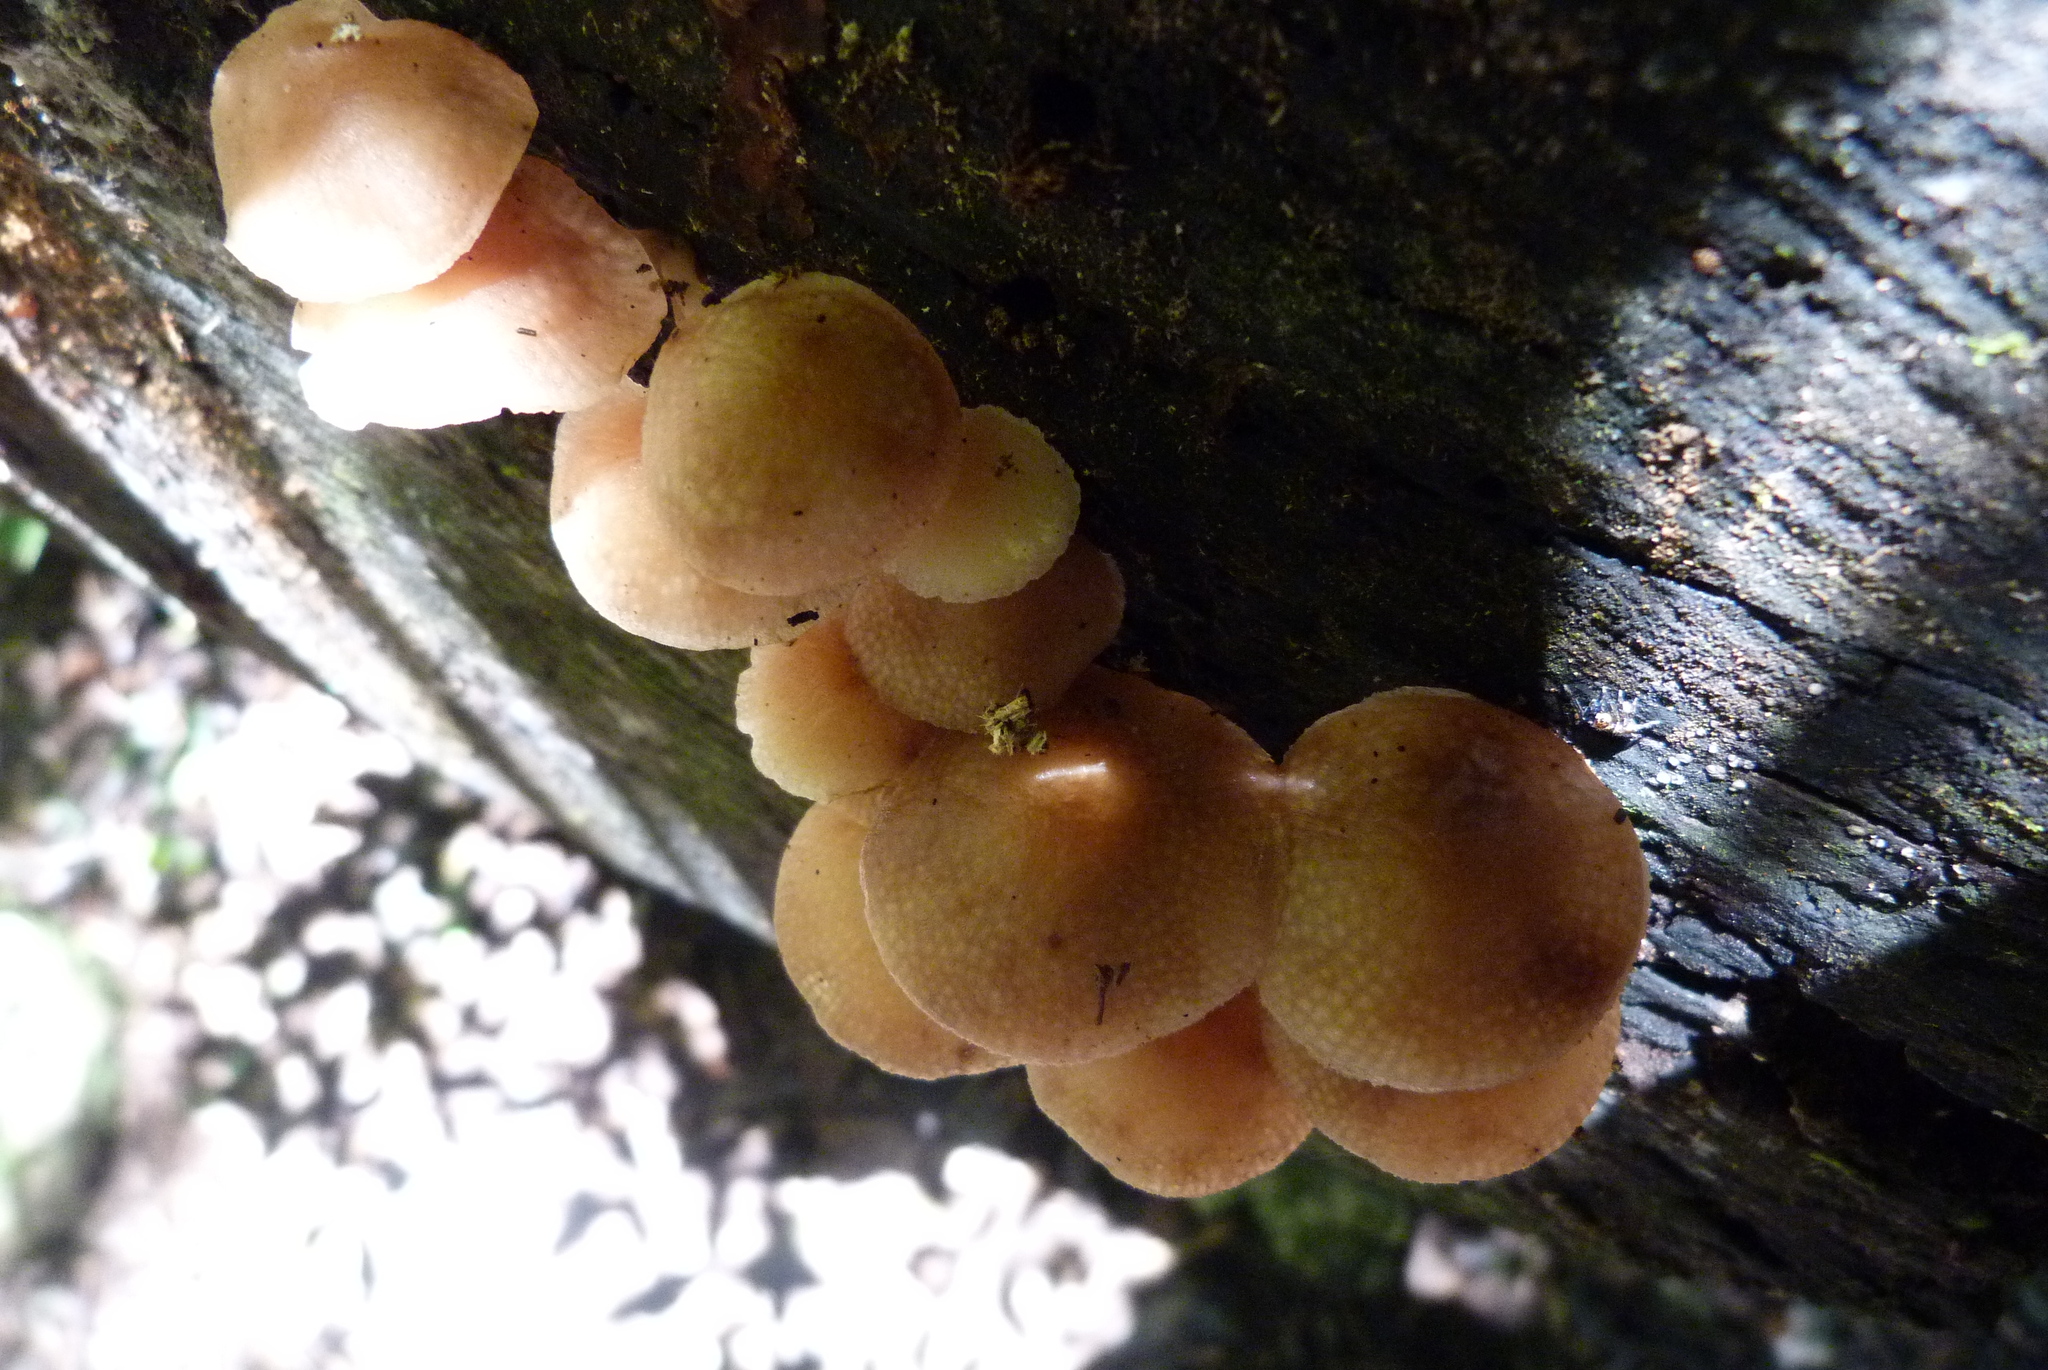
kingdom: Fungi
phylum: Basidiomycota
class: Agaricomycetes
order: Agaricales
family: Mycenaceae
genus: Filoboletus
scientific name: Filoboletus manipularis
